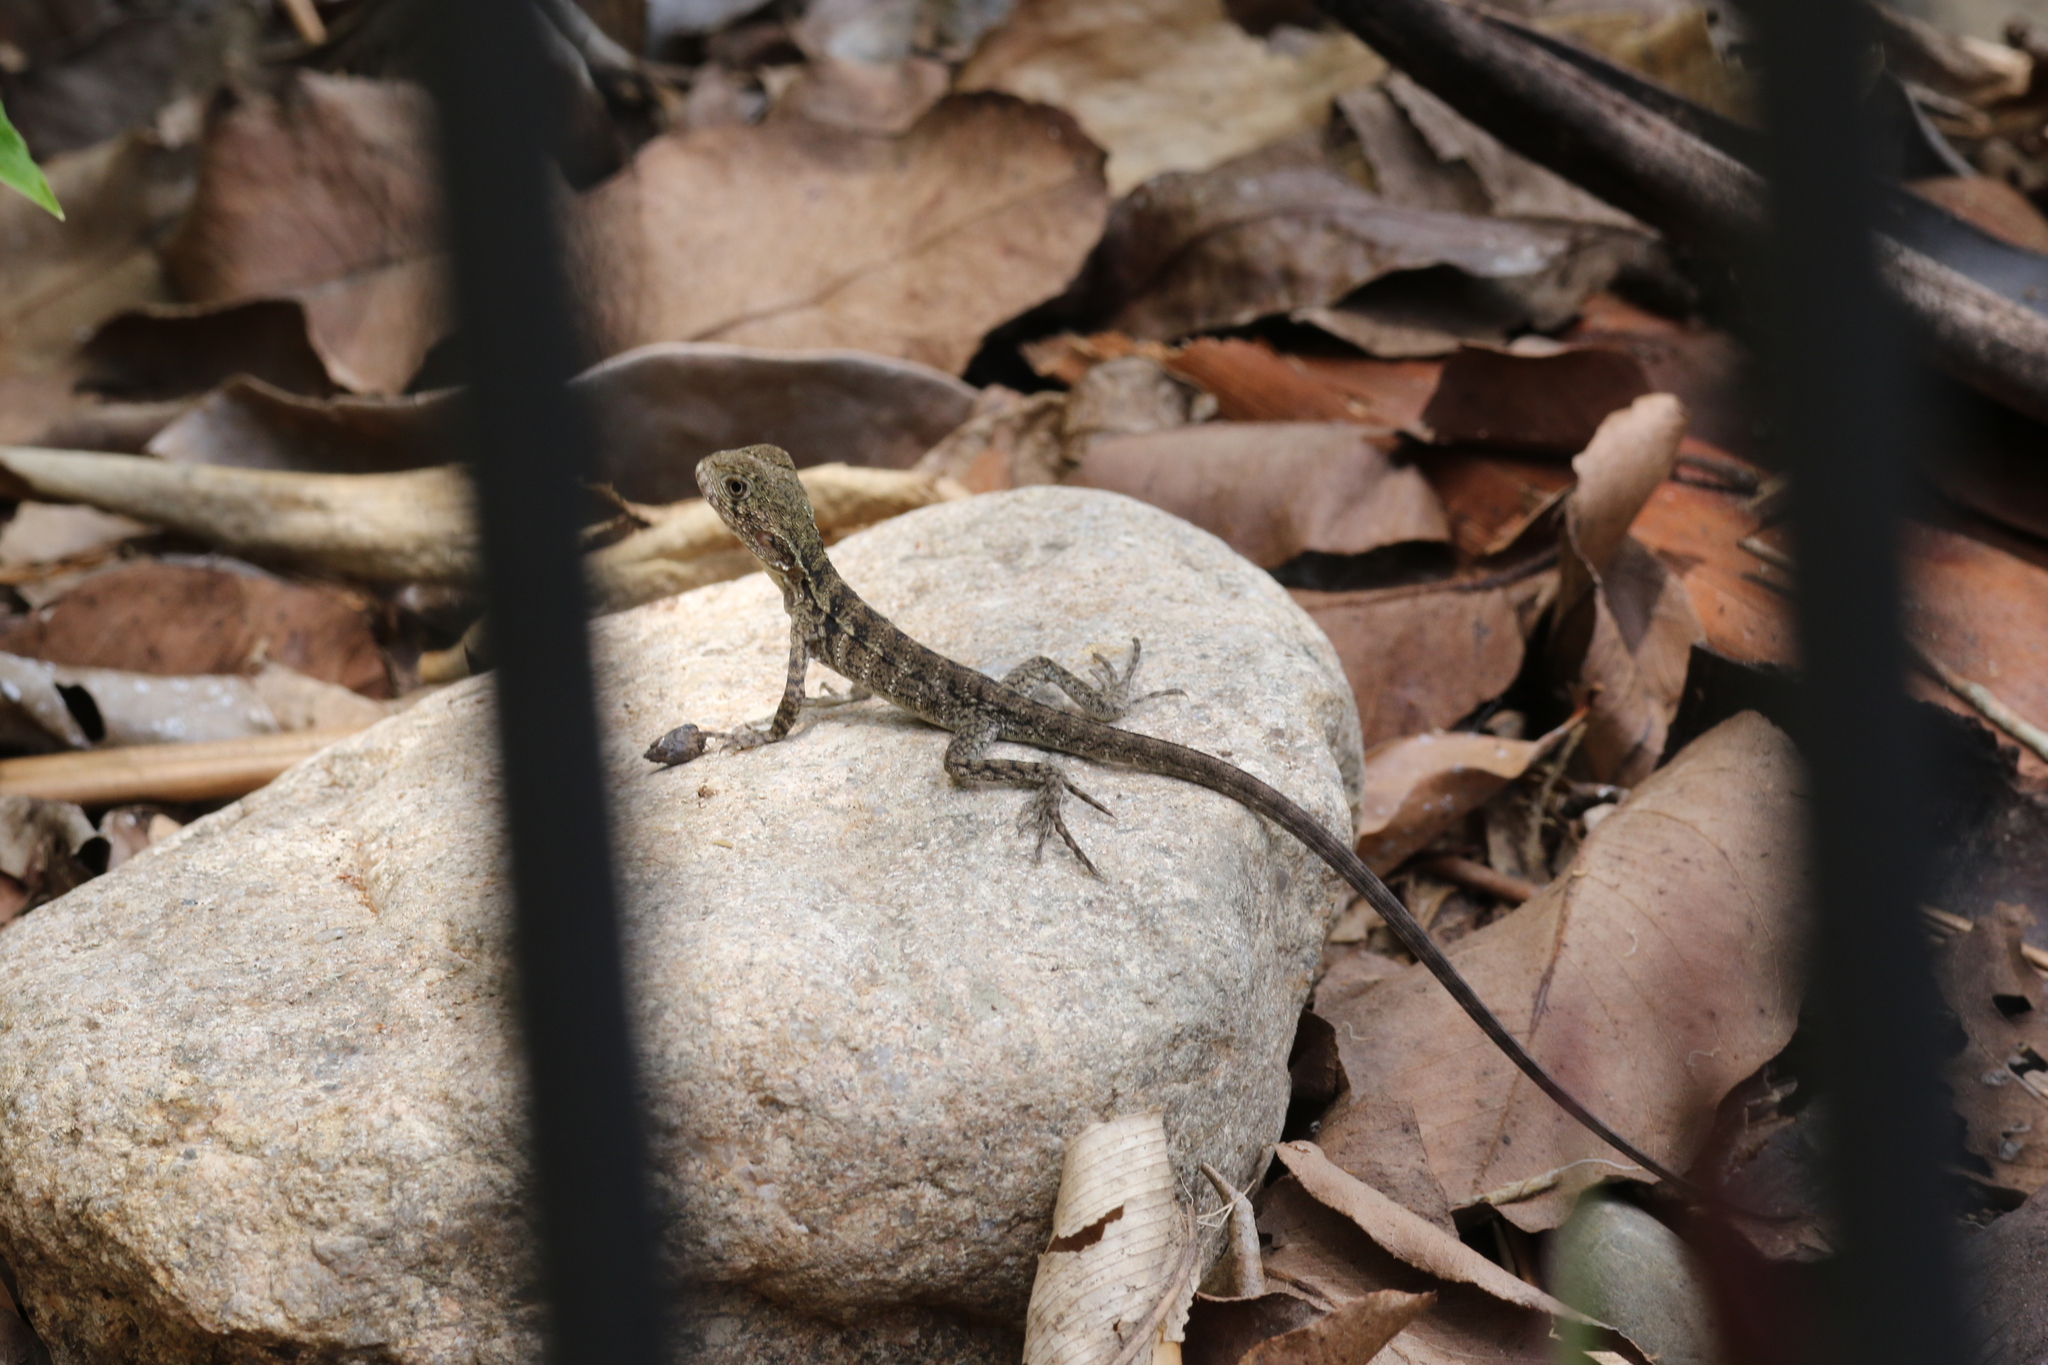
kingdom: Animalia
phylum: Chordata
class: Squamata
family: Agamidae
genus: Intellagama
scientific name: Intellagama lesueurii
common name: Eastern water dragon
